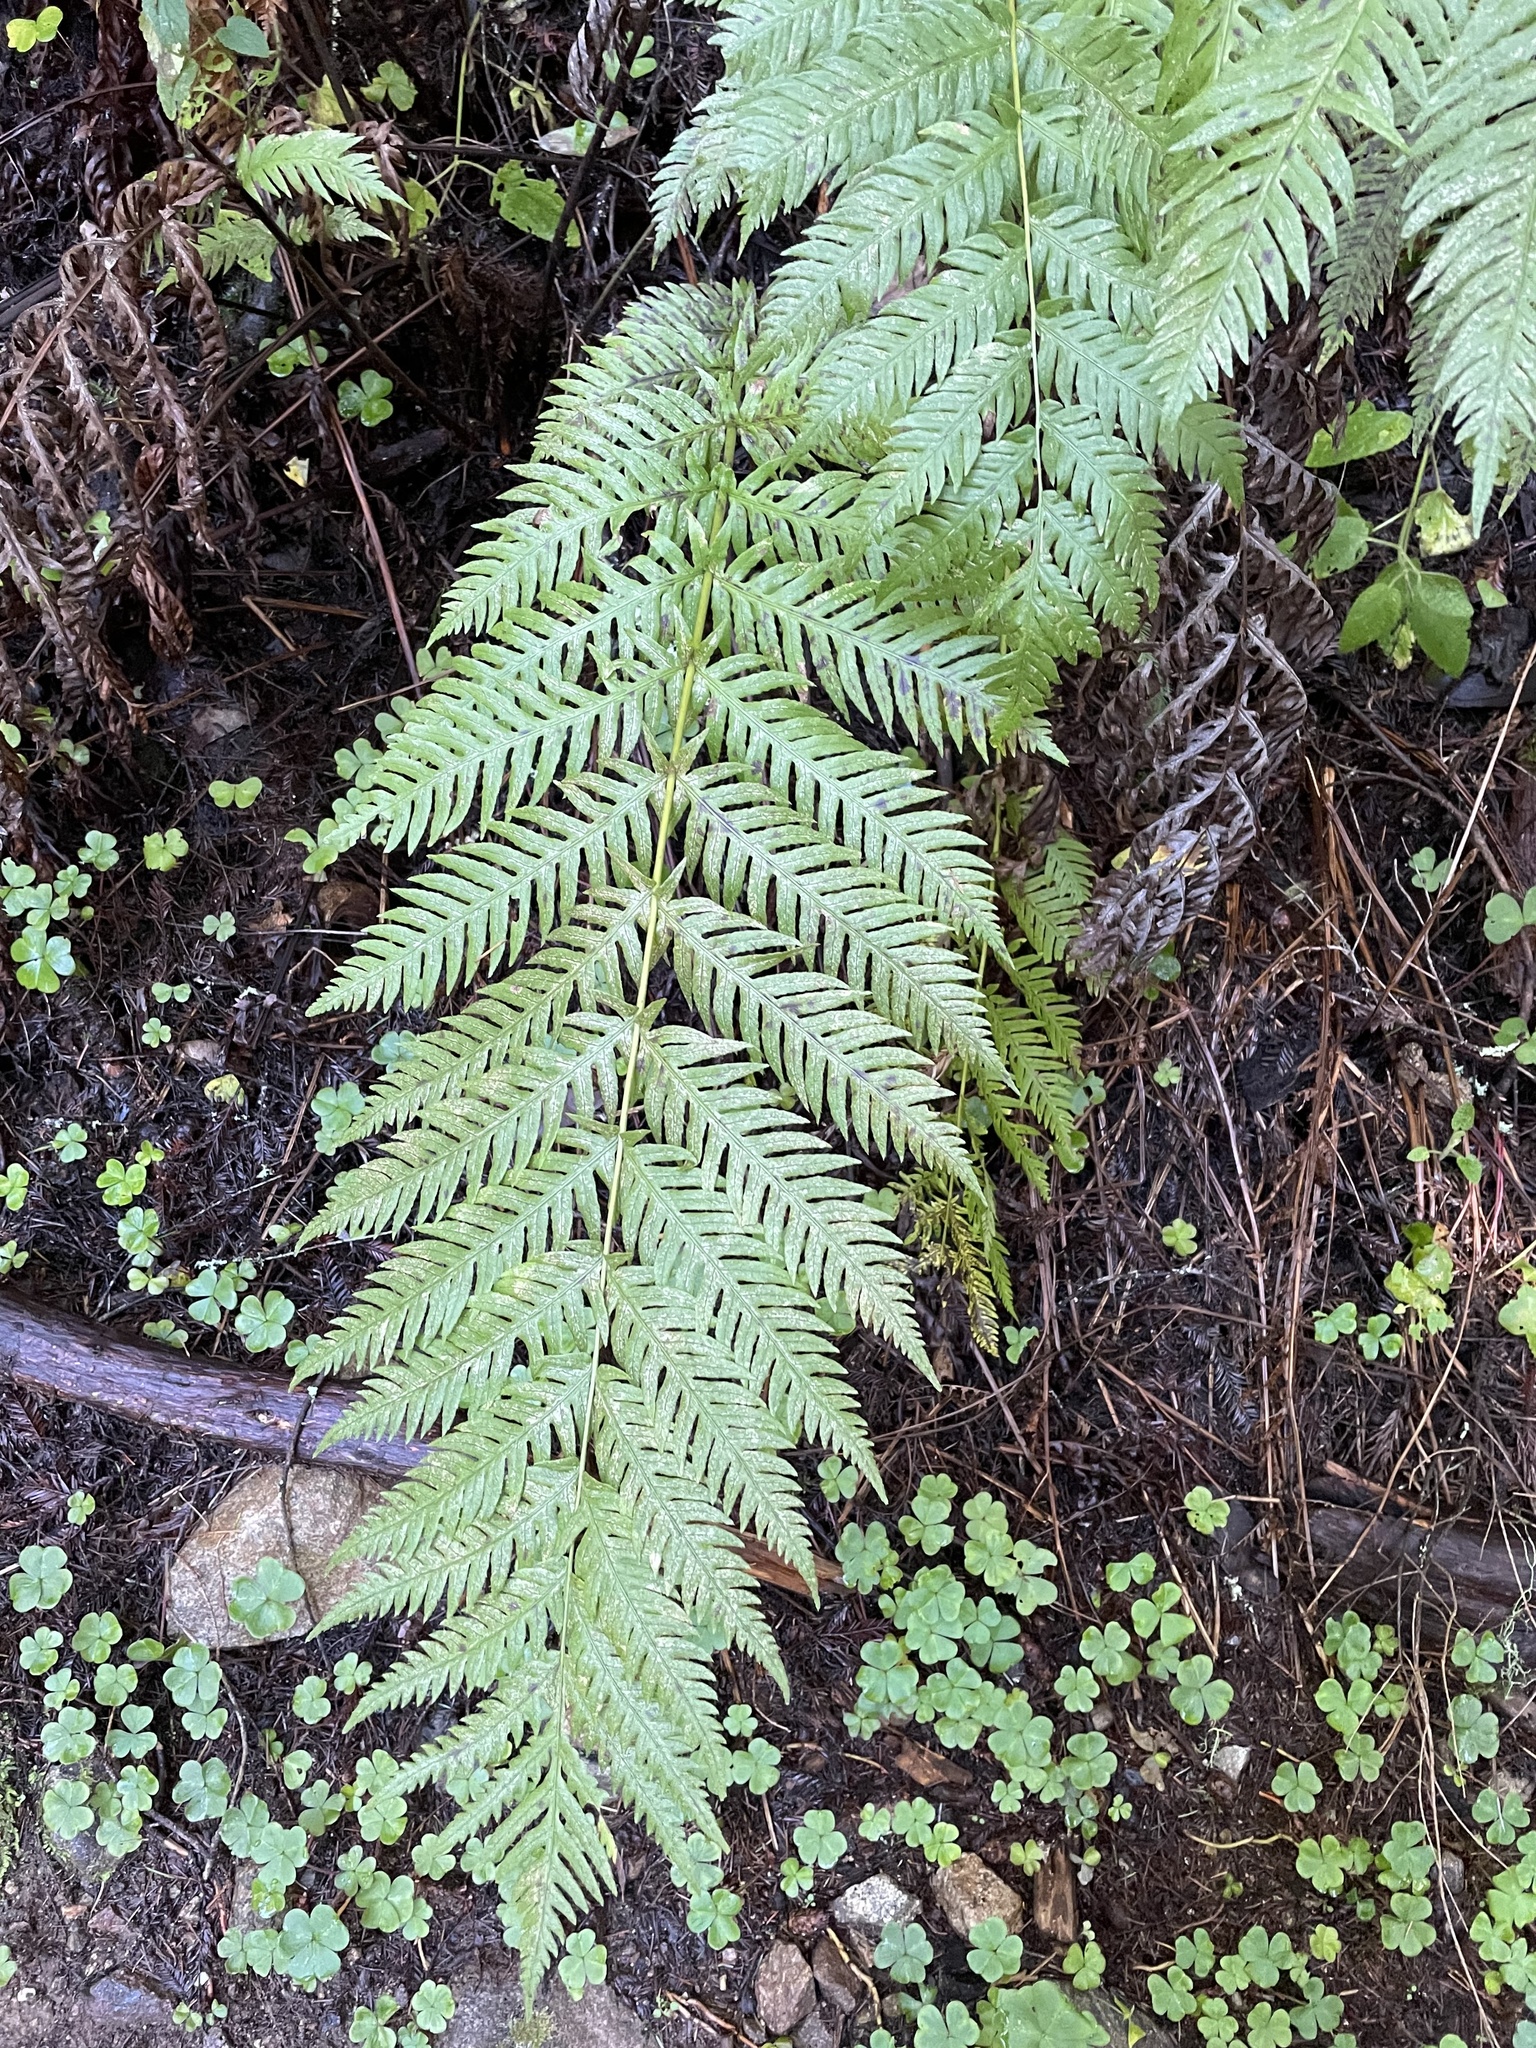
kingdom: Plantae
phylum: Tracheophyta
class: Polypodiopsida
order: Polypodiales
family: Blechnaceae
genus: Woodwardia
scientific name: Woodwardia fimbriata
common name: Giant chain fern
